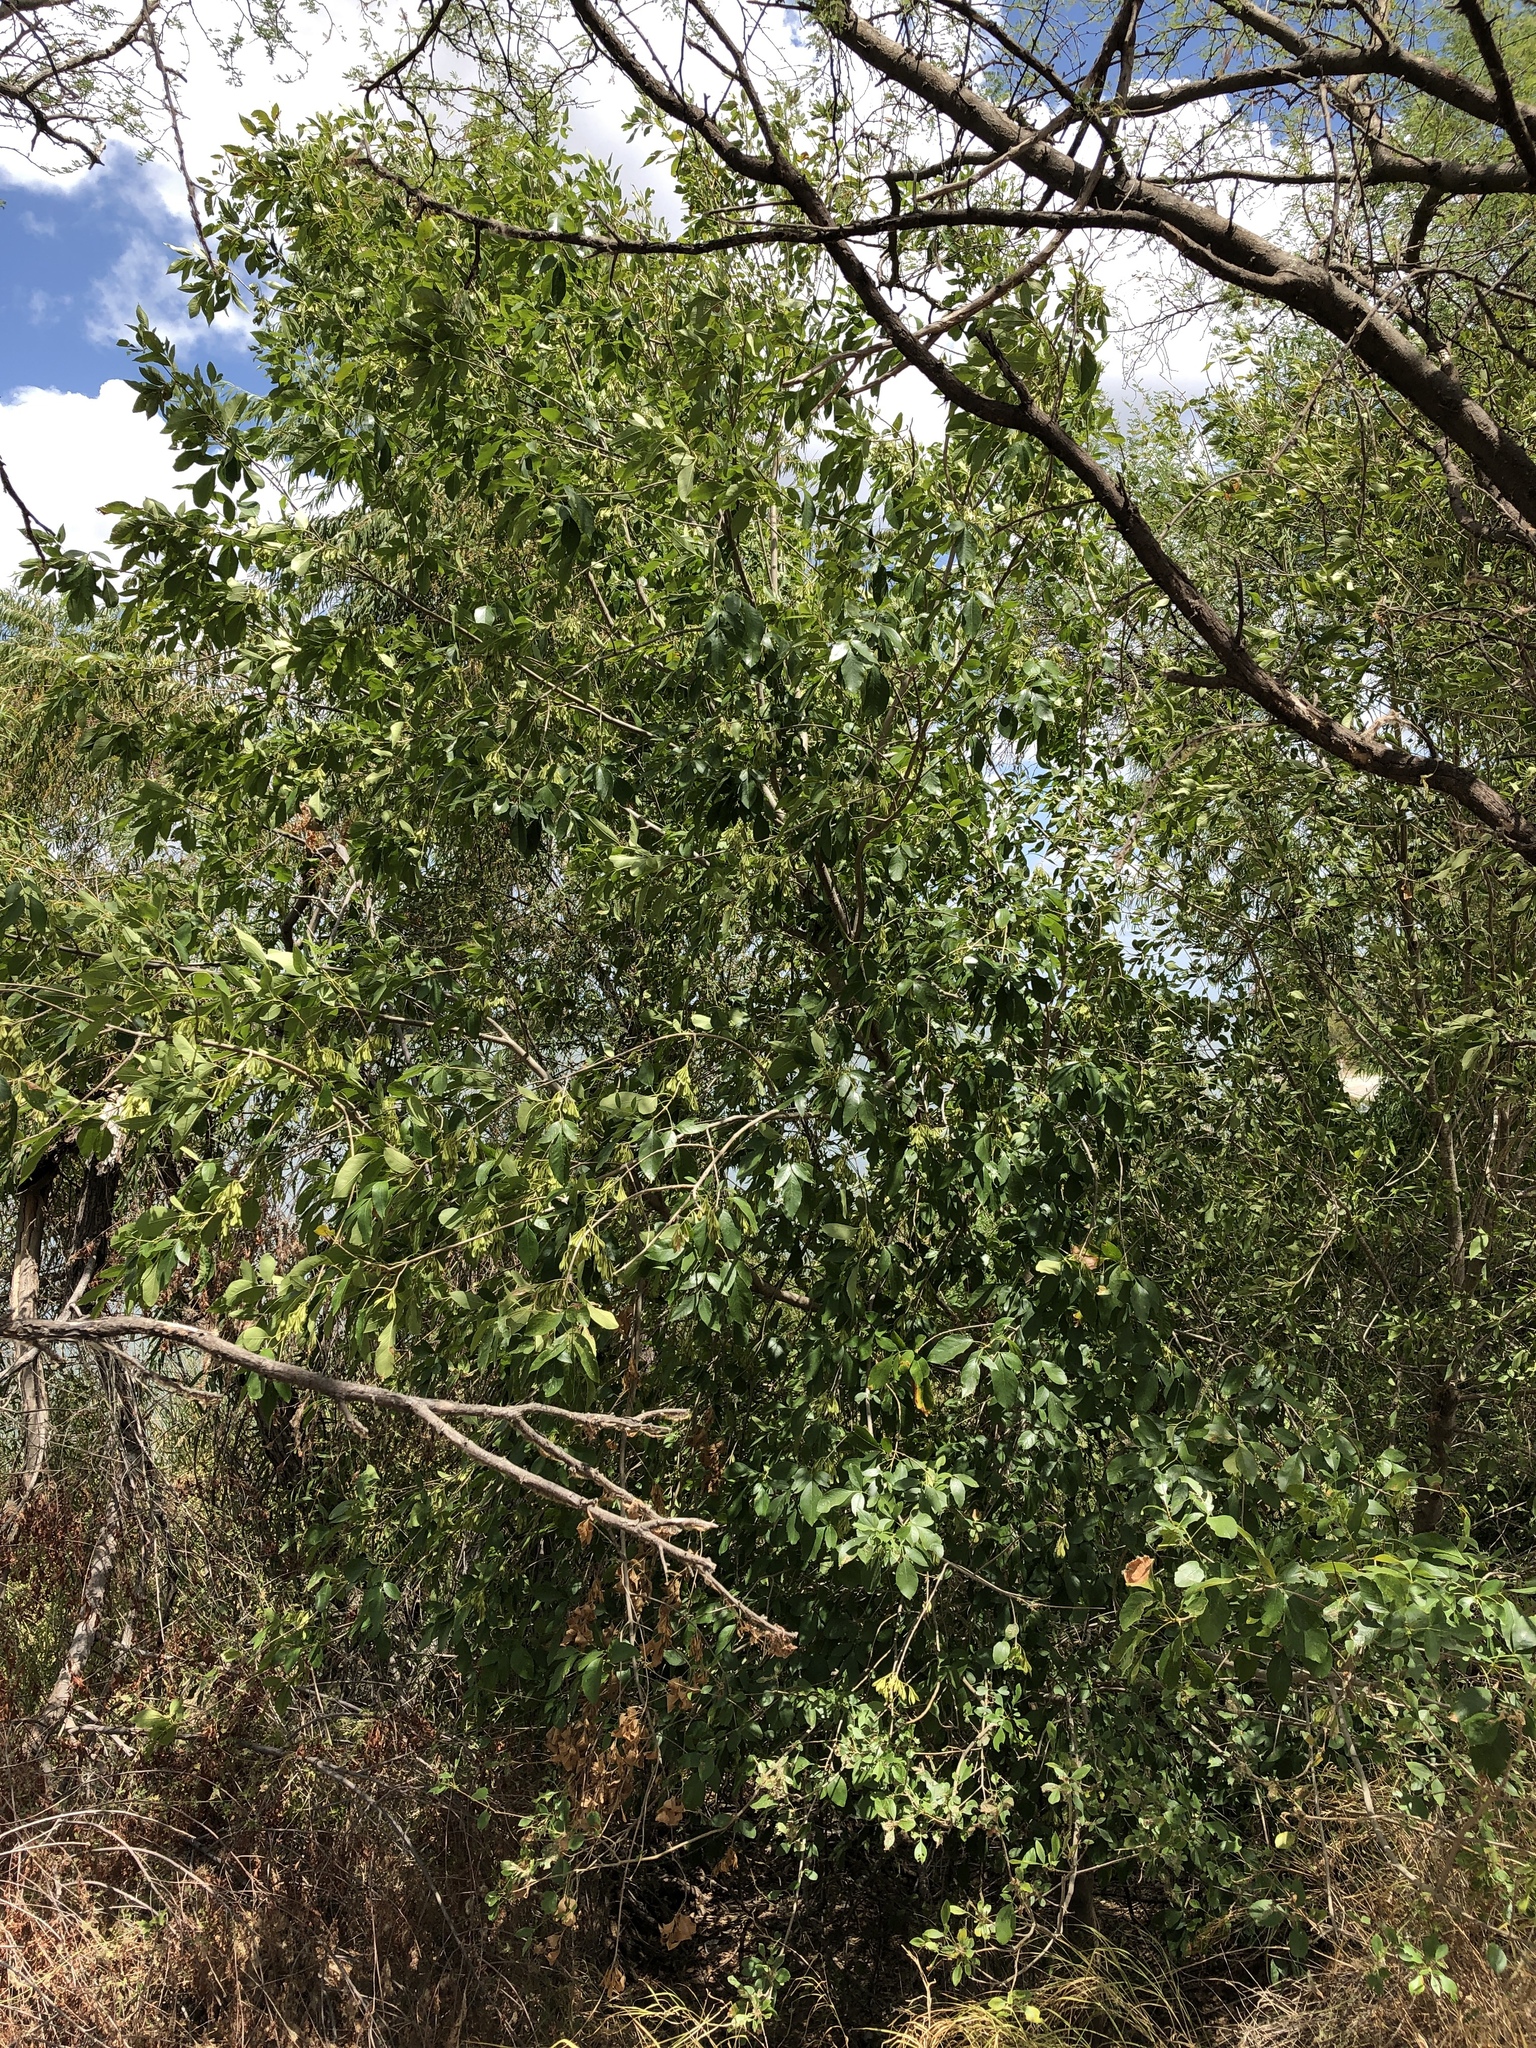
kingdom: Plantae
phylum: Tracheophyta
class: Magnoliopsida
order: Lamiales
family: Oleaceae
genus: Fraxinus
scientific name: Fraxinus berlandieriana
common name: Berlandier ash
